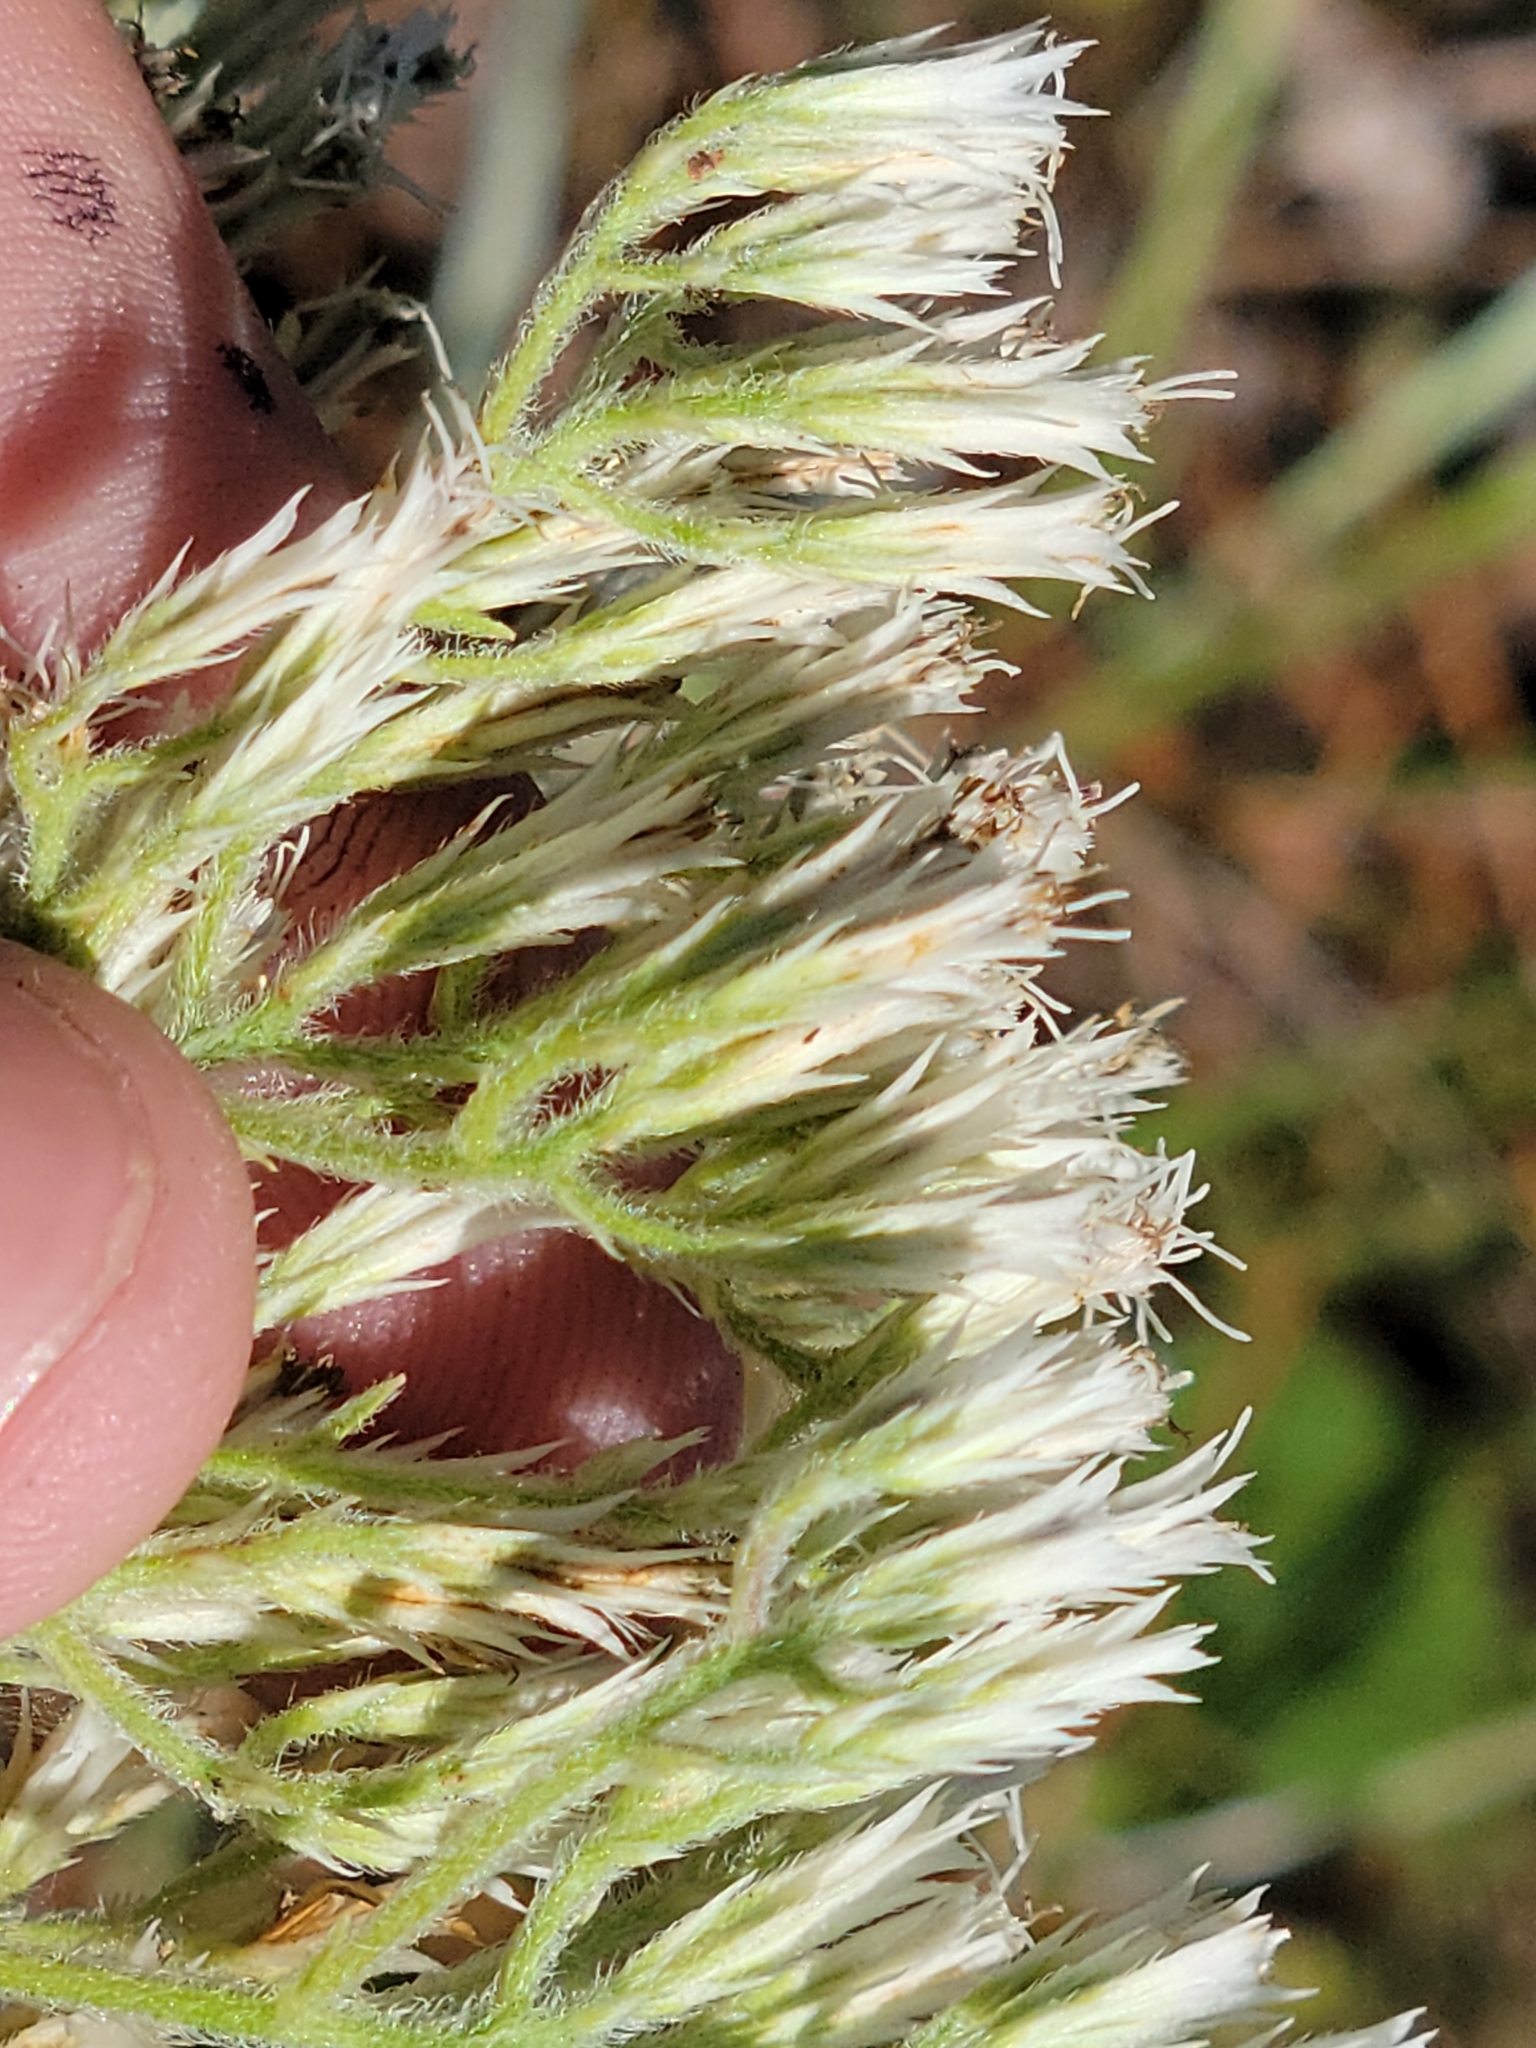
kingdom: Plantae
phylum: Tracheophyta
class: Magnoliopsida
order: Asterales
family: Asteraceae
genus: Eupatorium
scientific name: Eupatorium album
